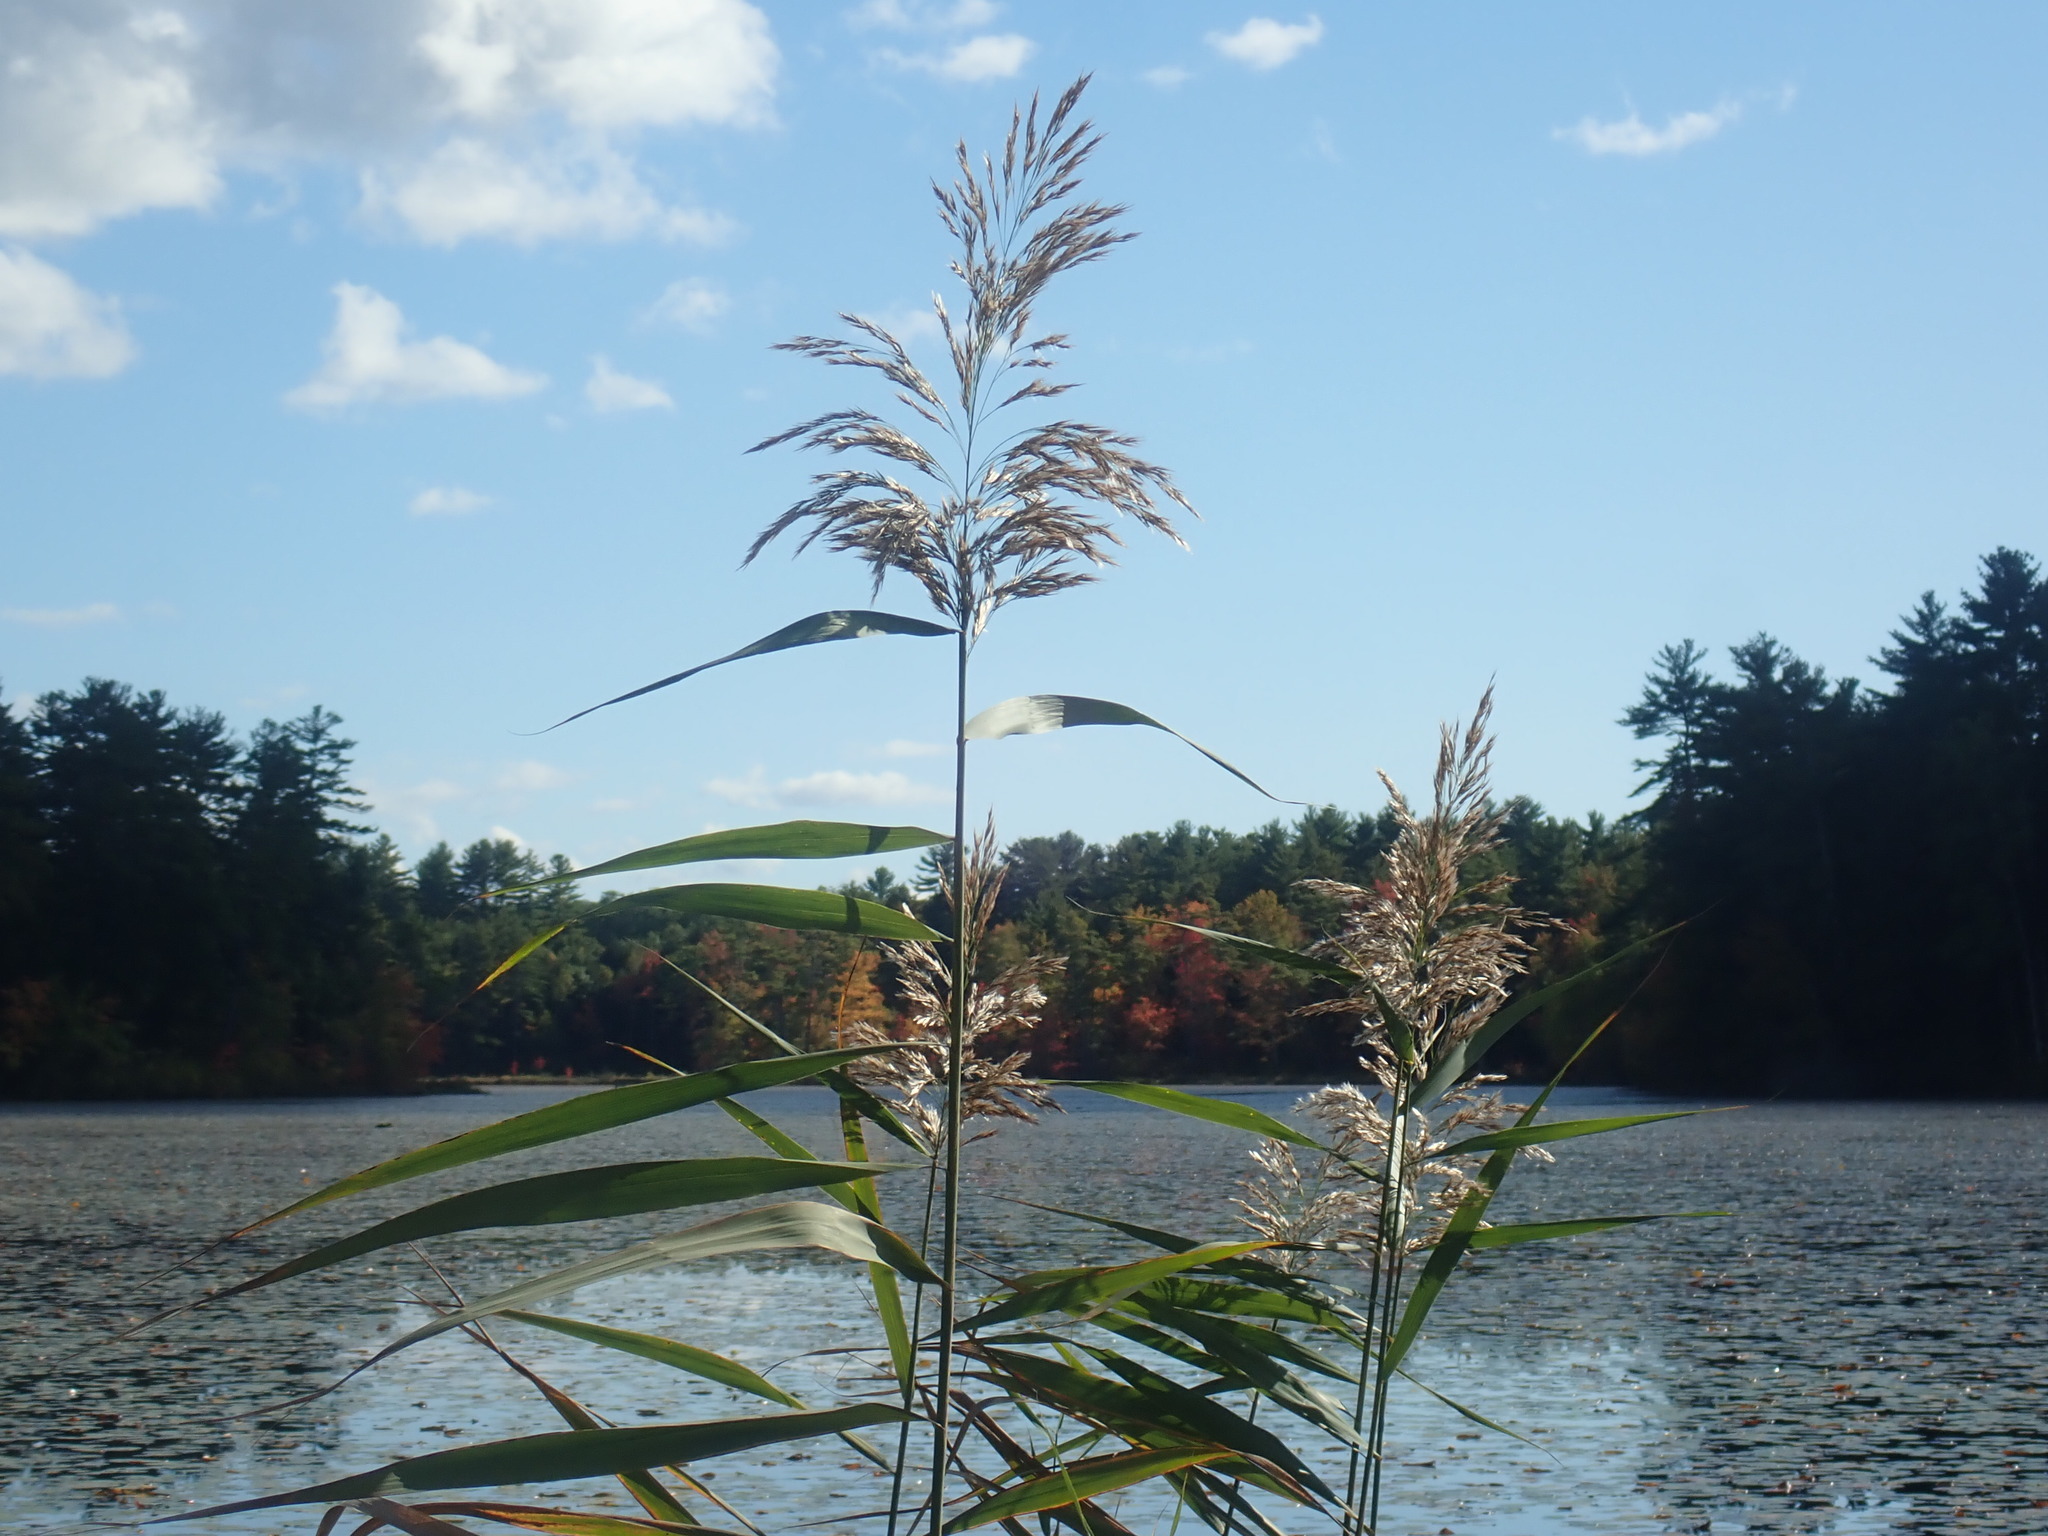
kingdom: Plantae
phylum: Tracheophyta
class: Liliopsida
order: Poales
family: Poaceae
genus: Phragmites
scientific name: Phragmites australis
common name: Common reed
